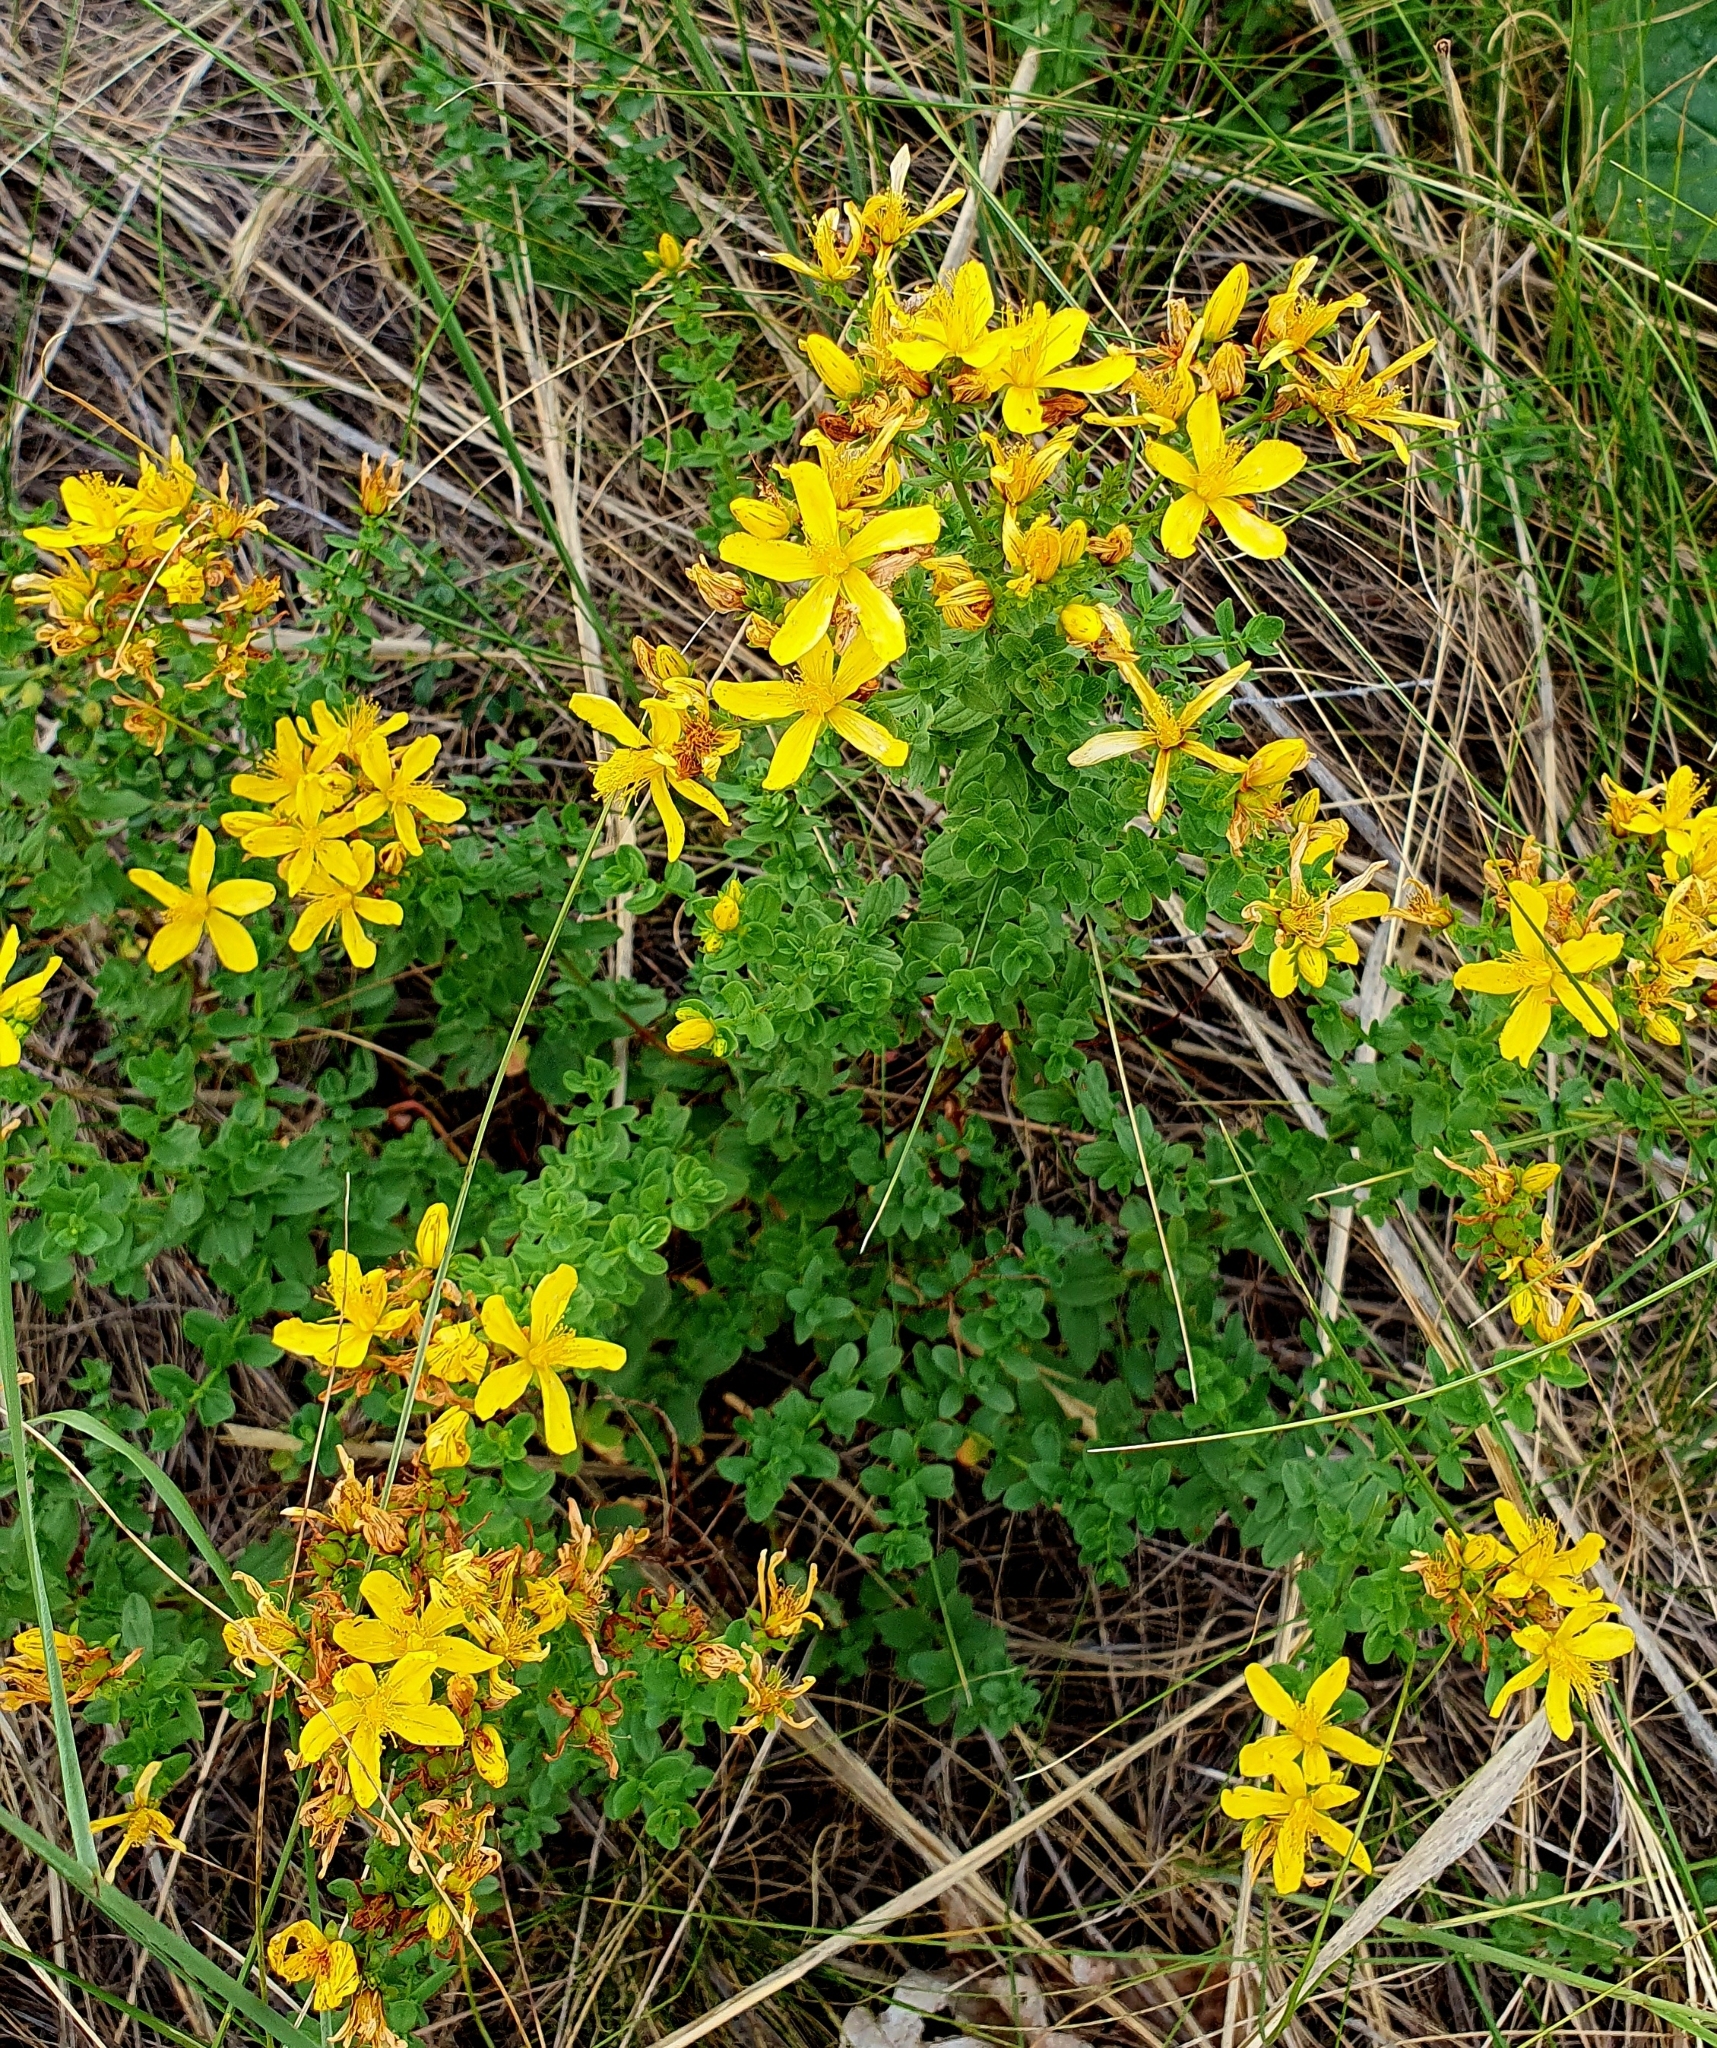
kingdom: Plantae
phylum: Tracheophyta
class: Magnoliopsida
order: Malpighiales
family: Hypericaceae
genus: Hypericum
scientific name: Hypericum perforatum
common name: Common st. johnswort
